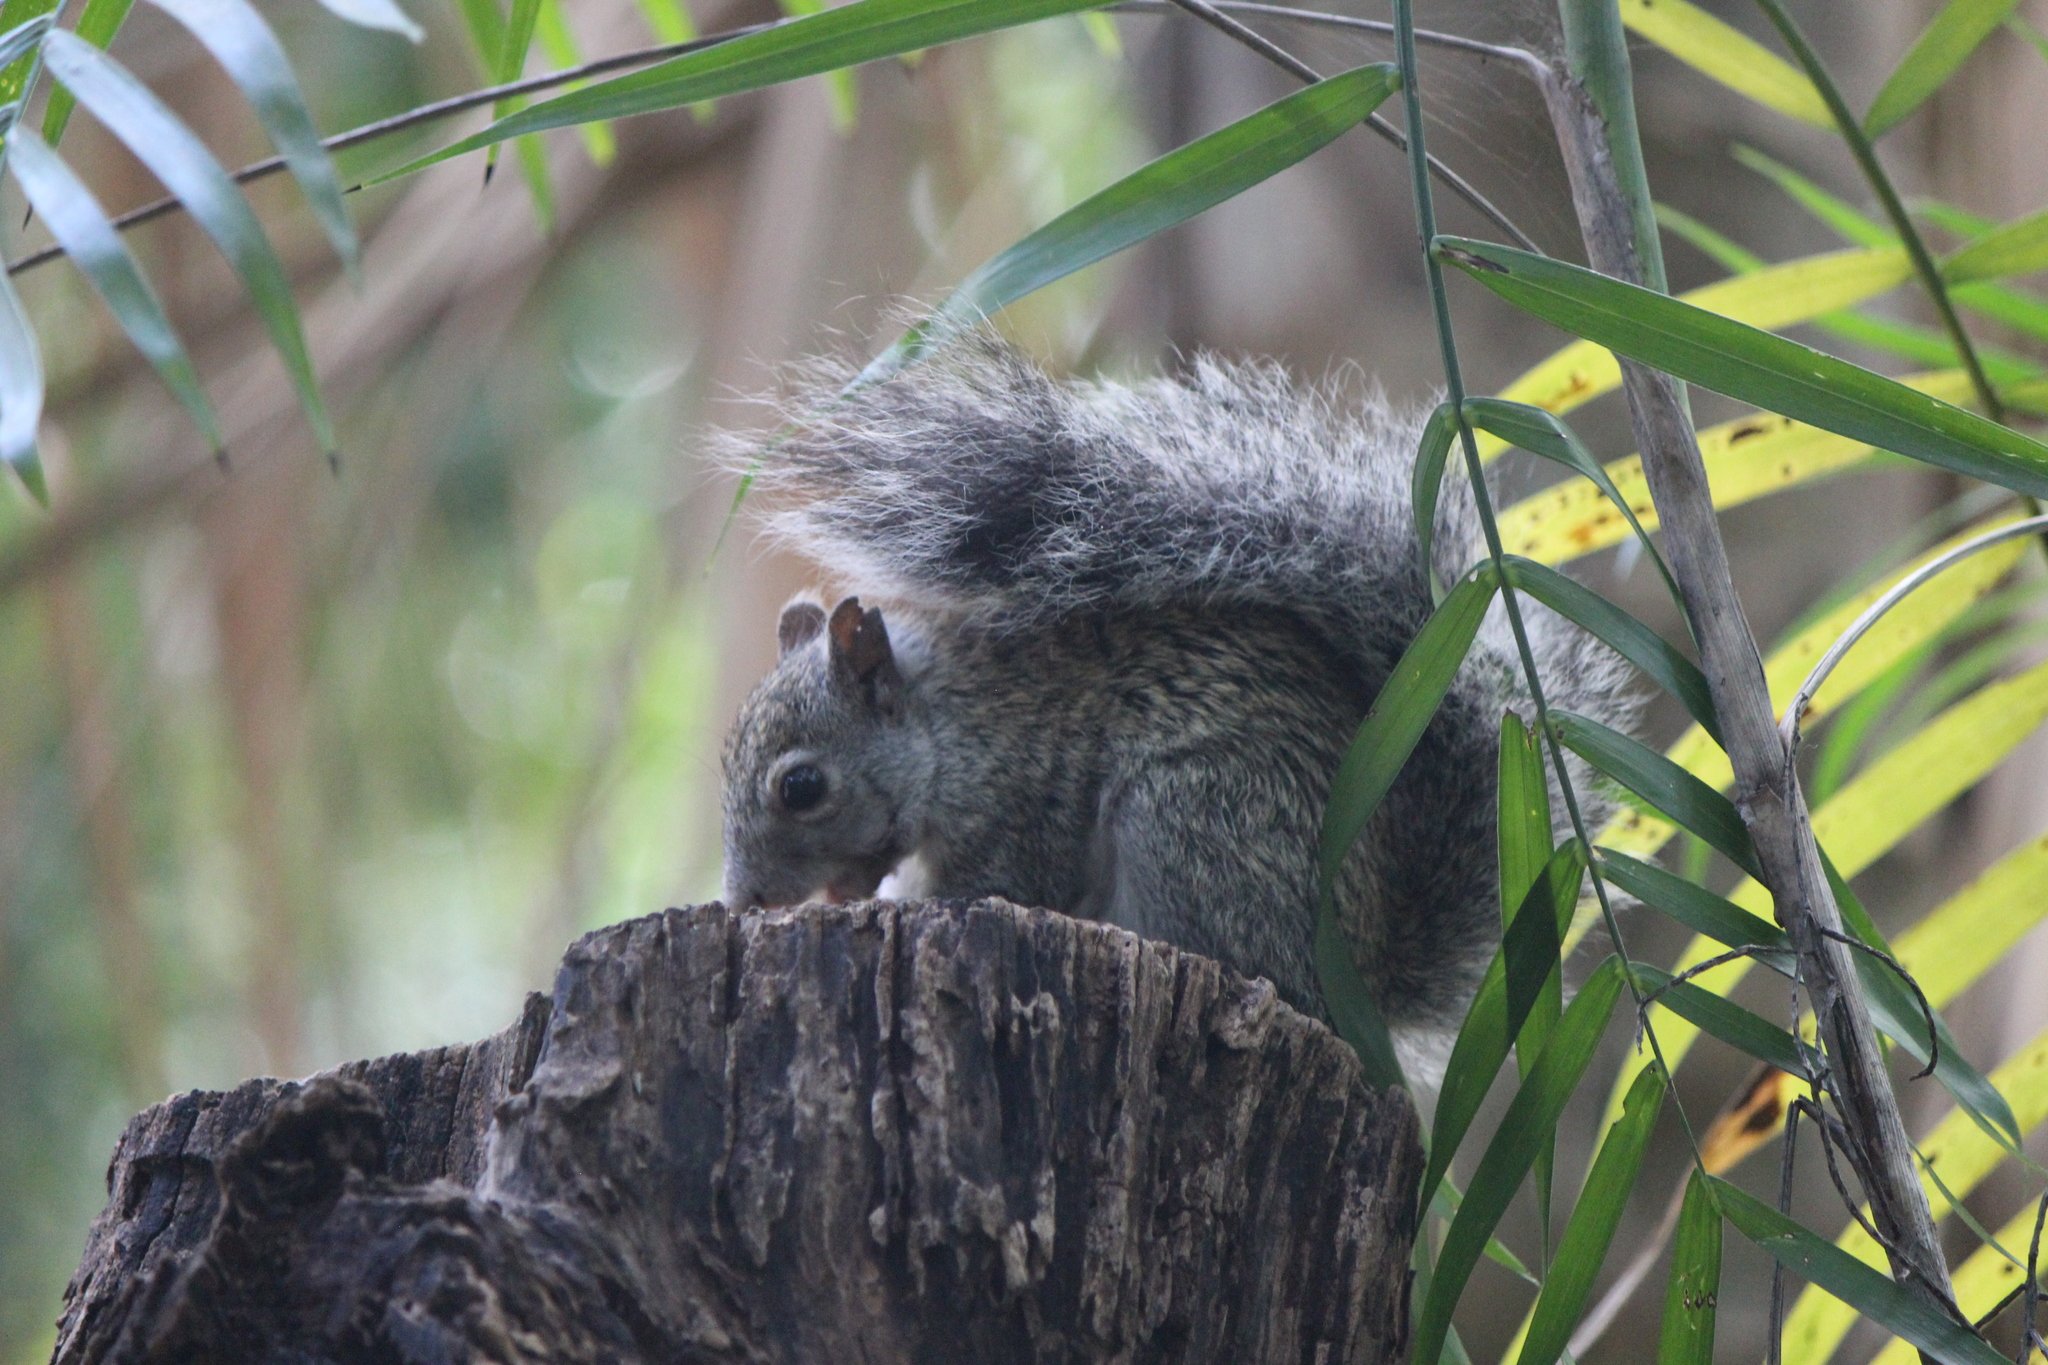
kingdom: Animalia
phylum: Chordata
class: Mammalia
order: Rodentia
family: Sciuridae
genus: Sciurus
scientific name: Sciurus yucatanensis
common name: Yucatan squirrel
